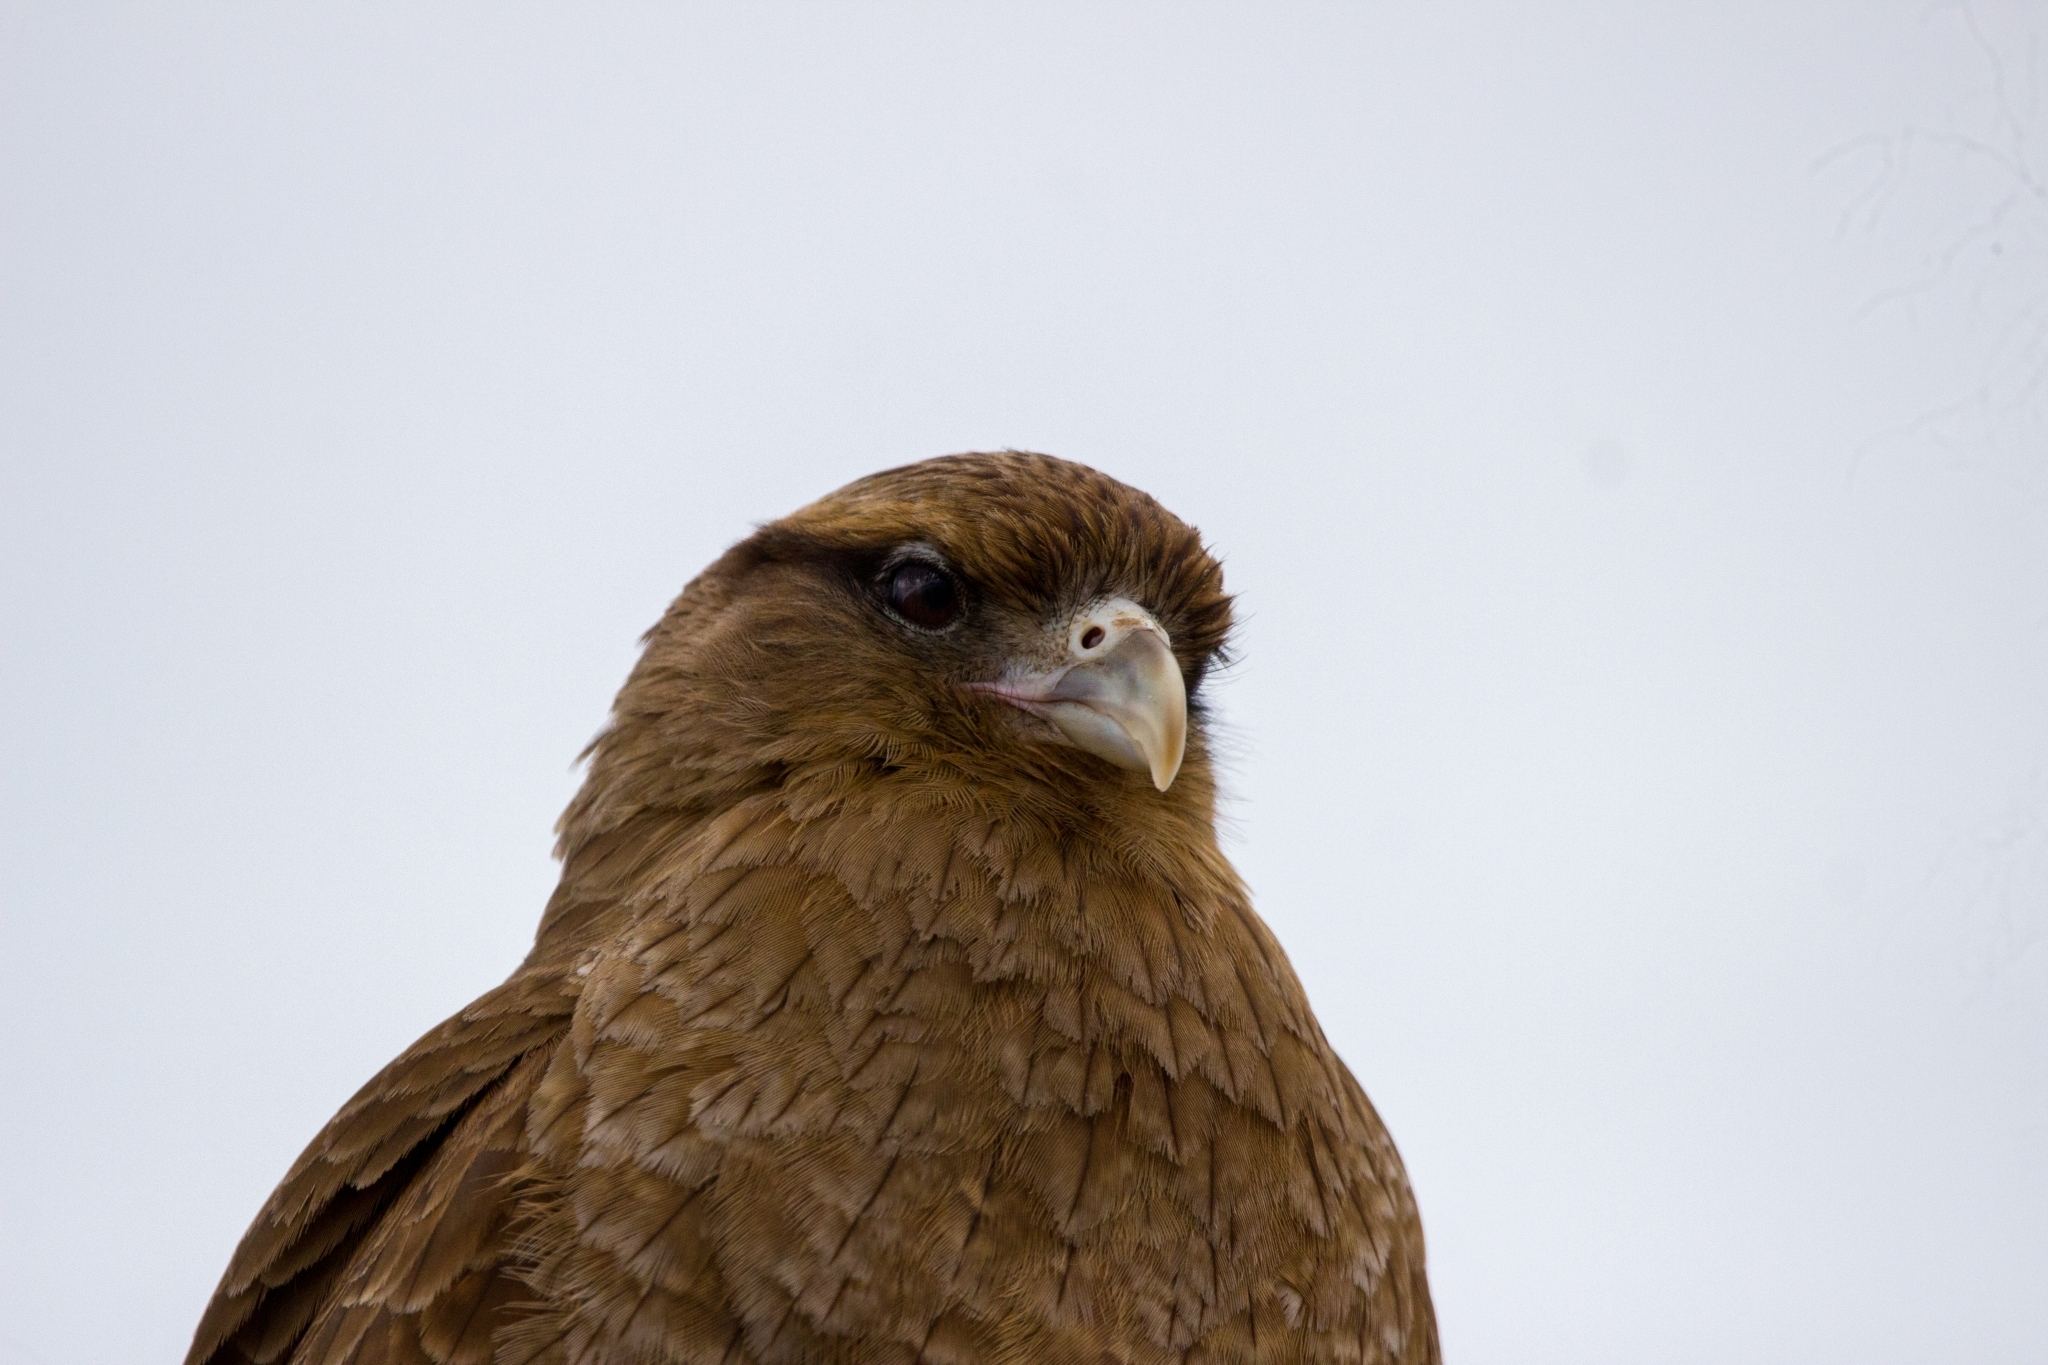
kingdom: Animalia
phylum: Chordata
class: Aves
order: Falconiformes
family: Falconidae
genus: Daptrius
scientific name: Daptrius
